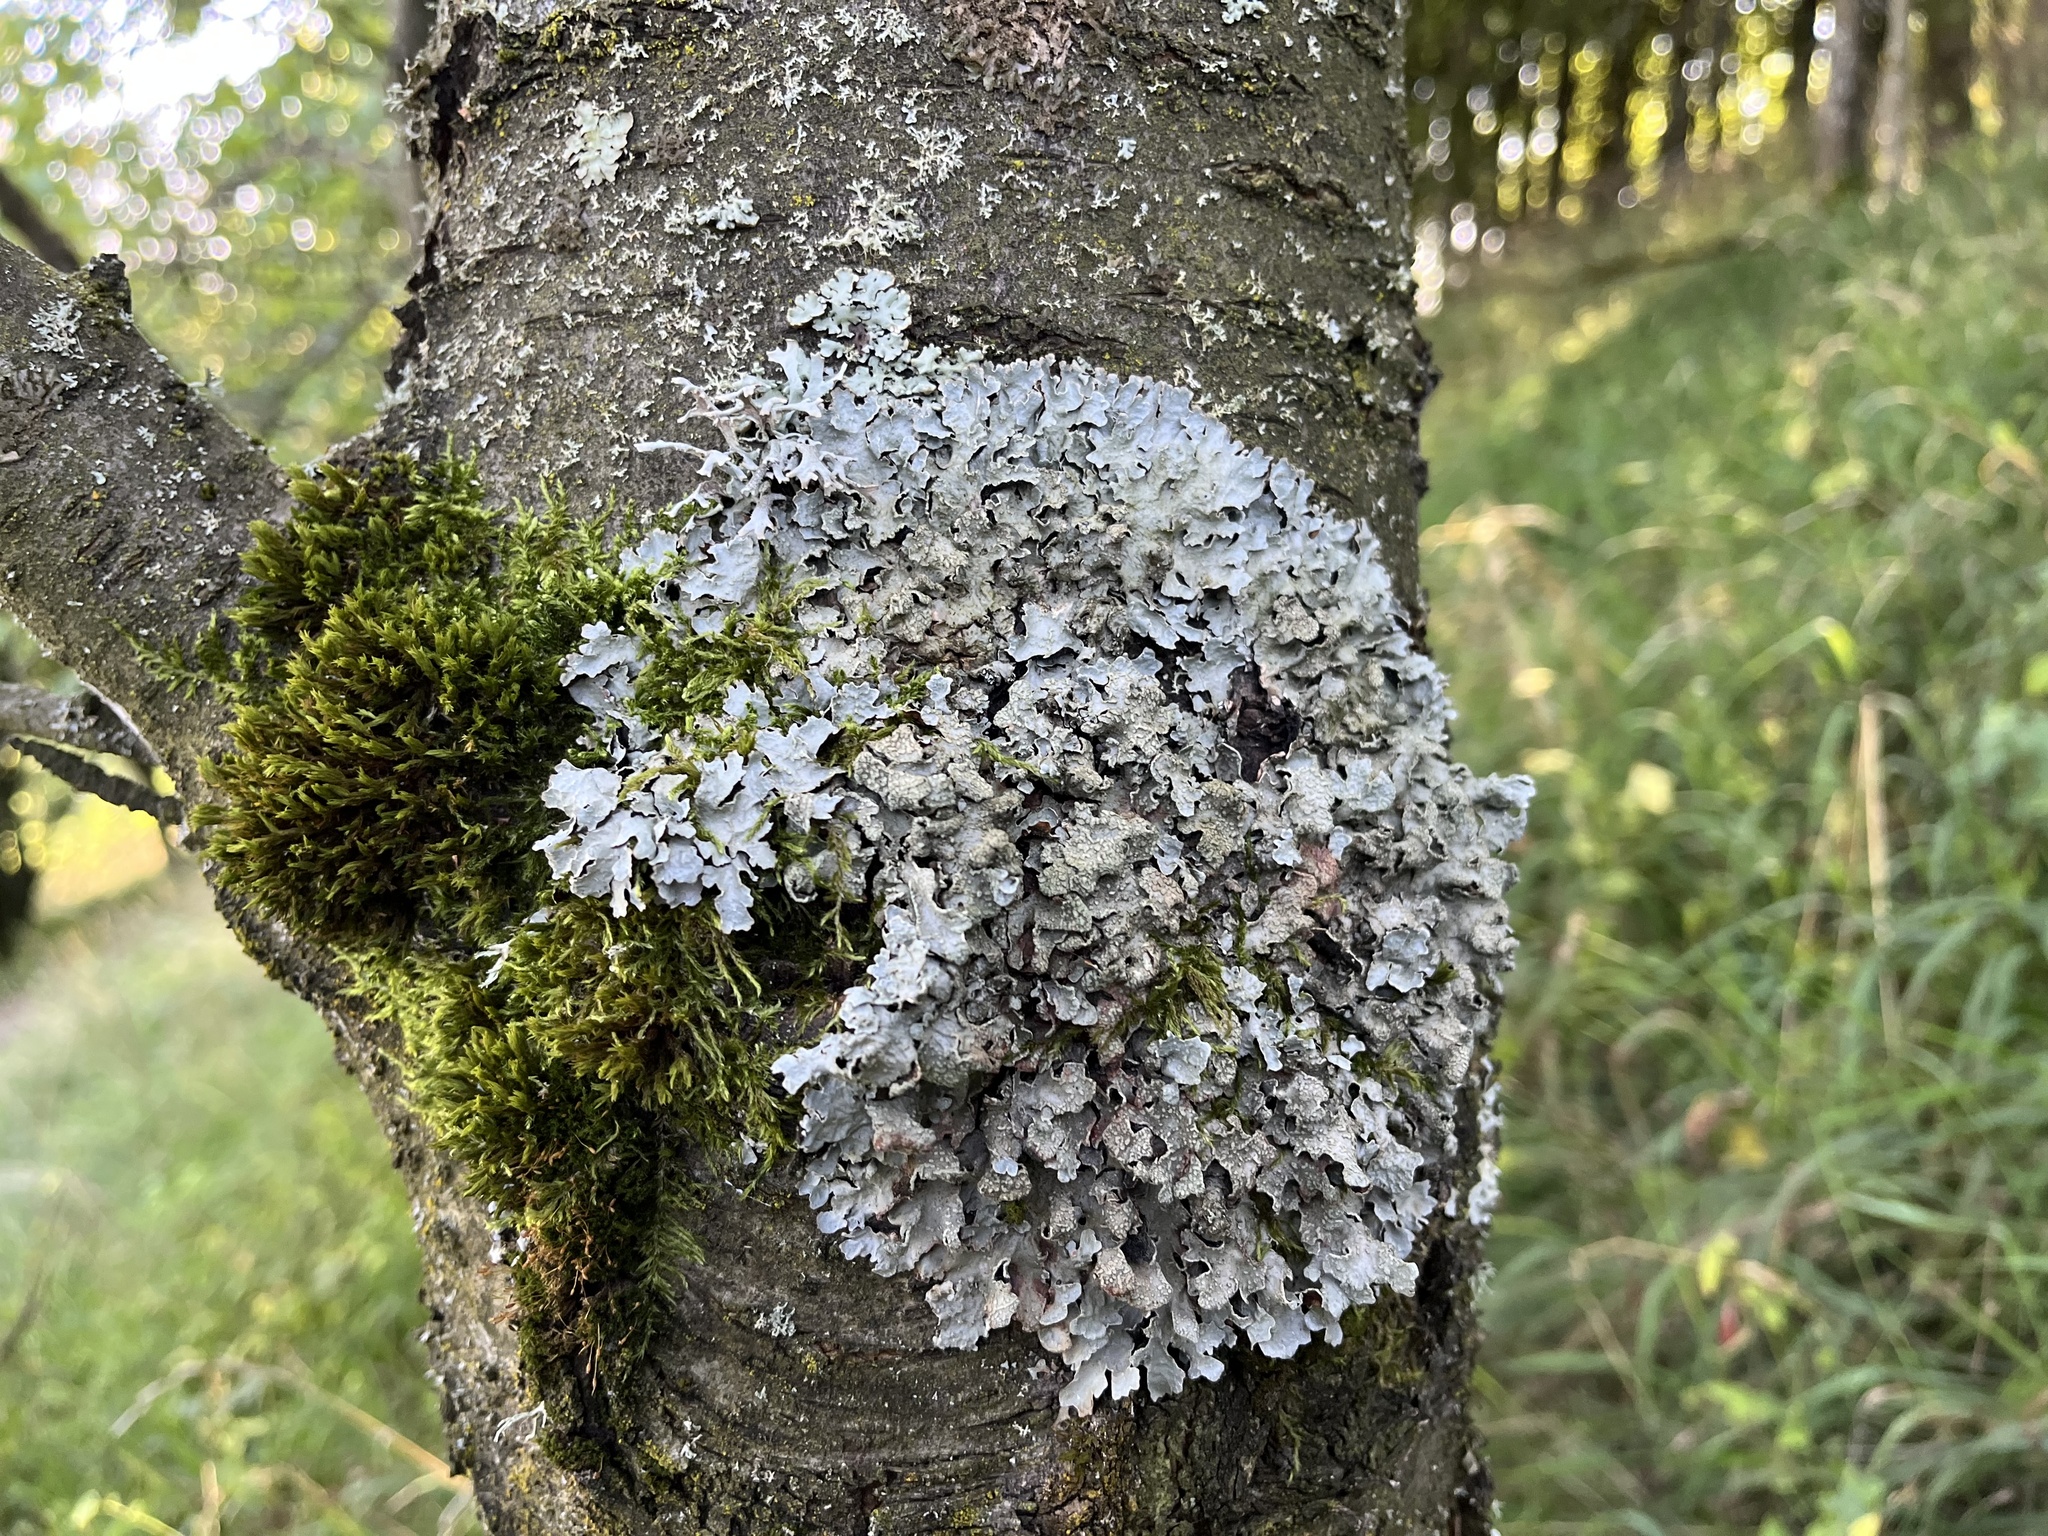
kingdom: Fungi
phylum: Ascomycota
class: Lecanoromycetes
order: Lecanorales
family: Parmeliaceae
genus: Parmelia
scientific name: Parmelia sulcata
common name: Netted shield lichen
